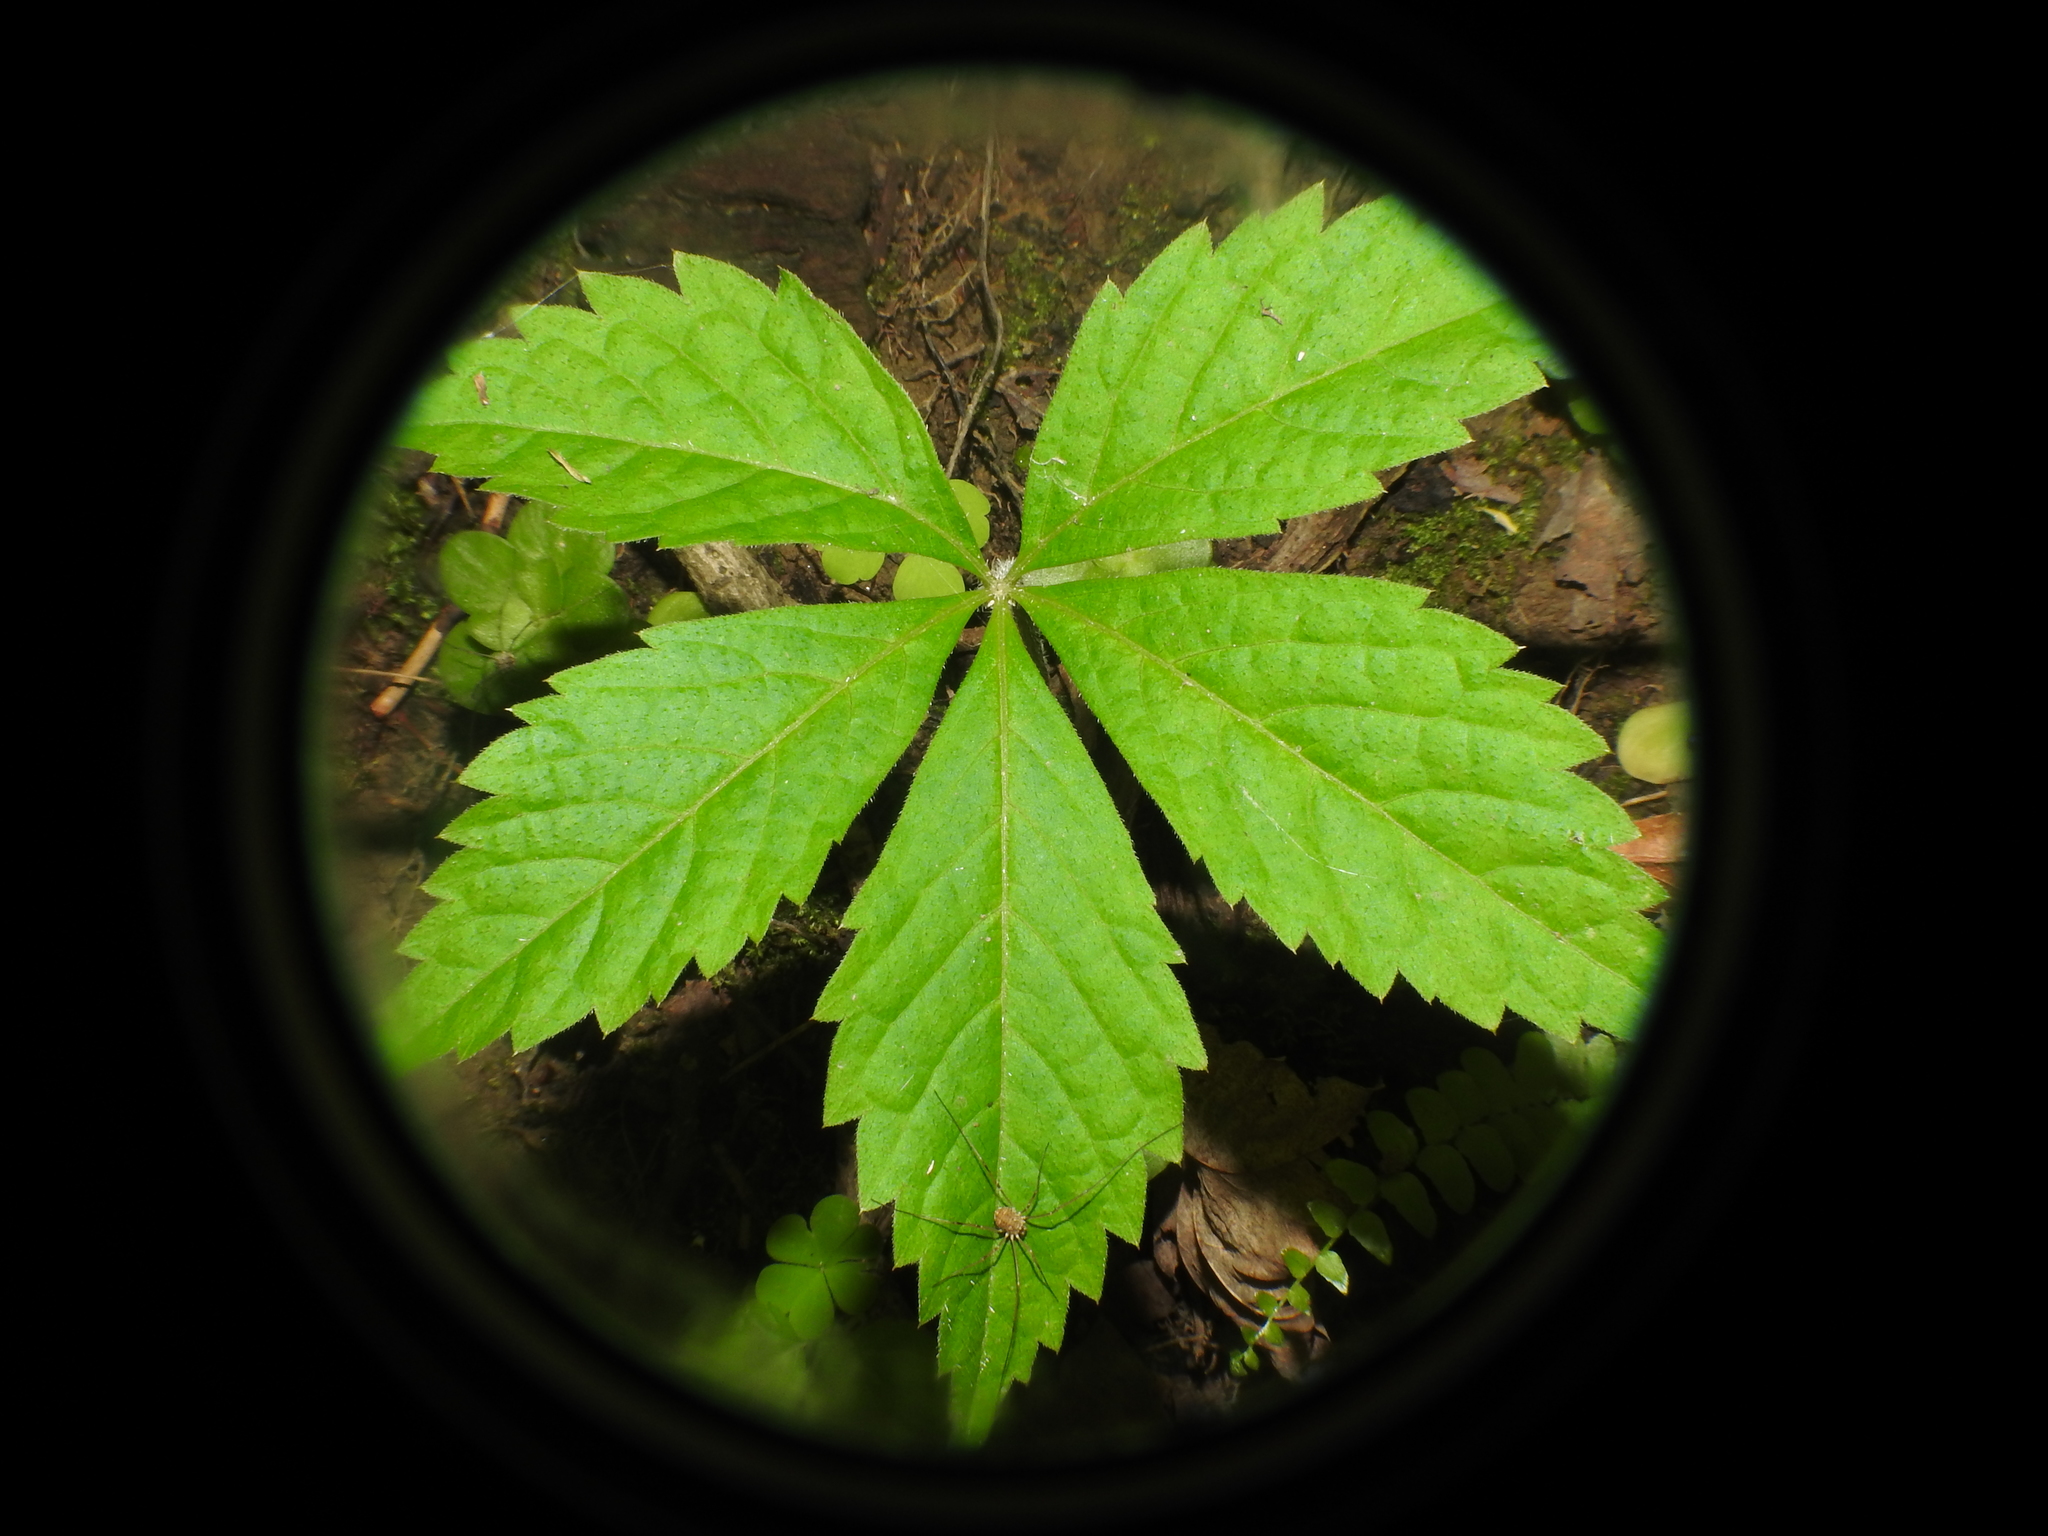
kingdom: Plantae
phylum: Tracheophyta
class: Magnoliopsida
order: Vitales
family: Vitaceae
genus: Parthenocissus
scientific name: Parthenocissus quinquefolia
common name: Virginia-creeper
